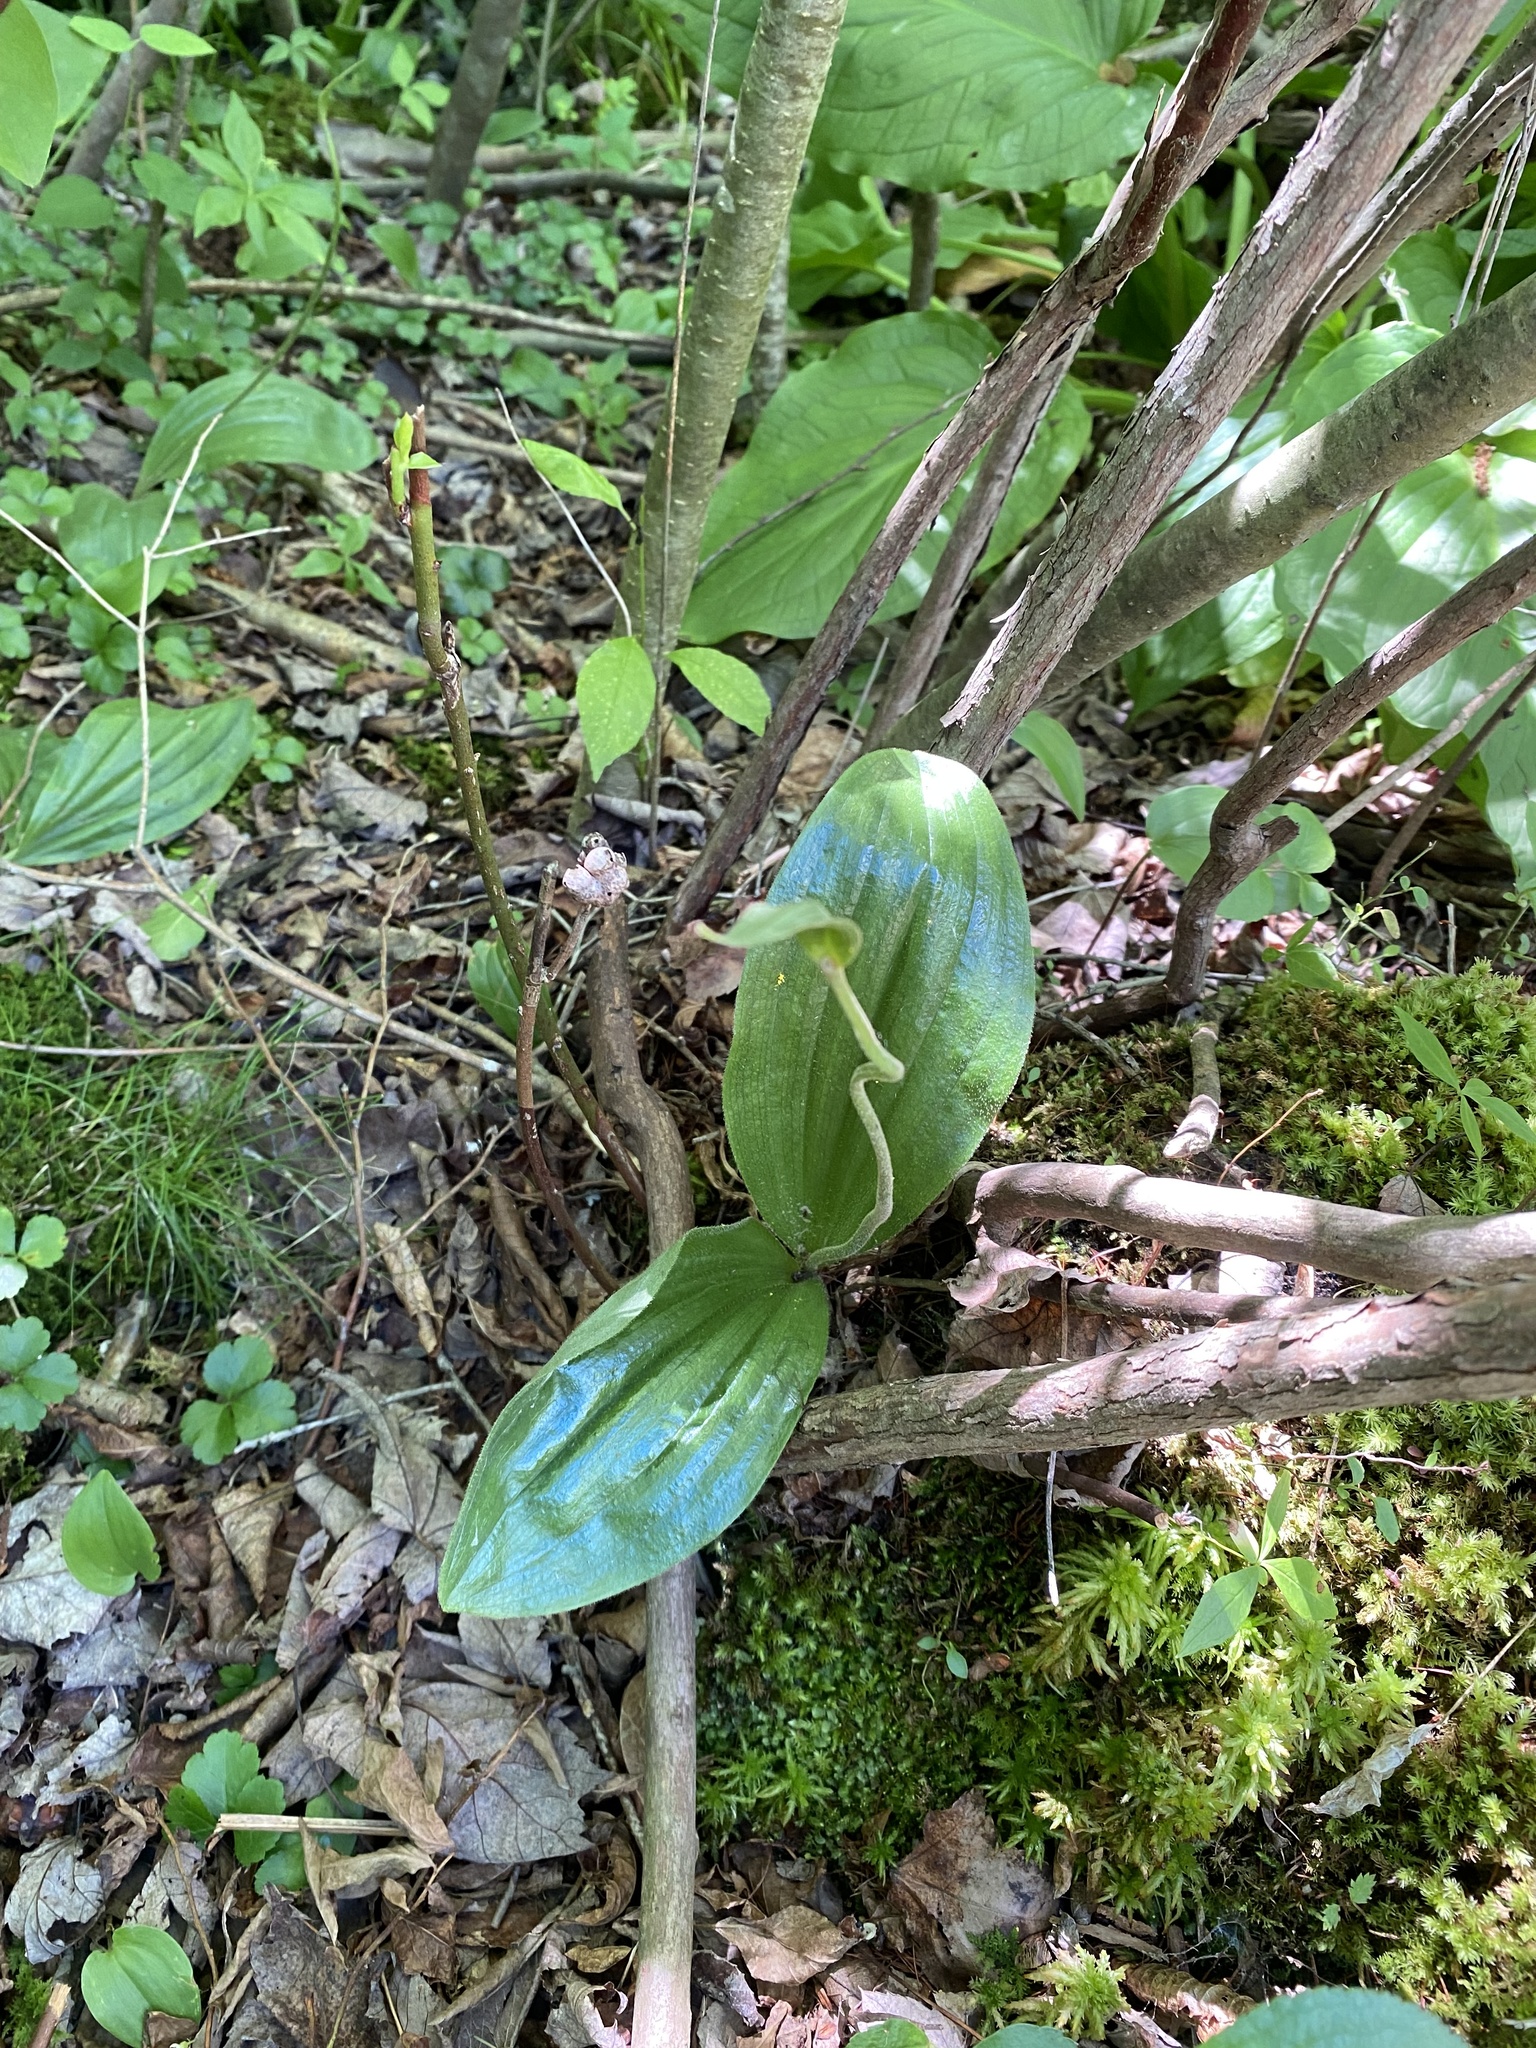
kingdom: Plantae
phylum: Tracheophyta
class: Liliopsida
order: Asparagales
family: Orchidaceae
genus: Cypripedium
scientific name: Cypripedium acaule
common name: Pink lady's-slipper
